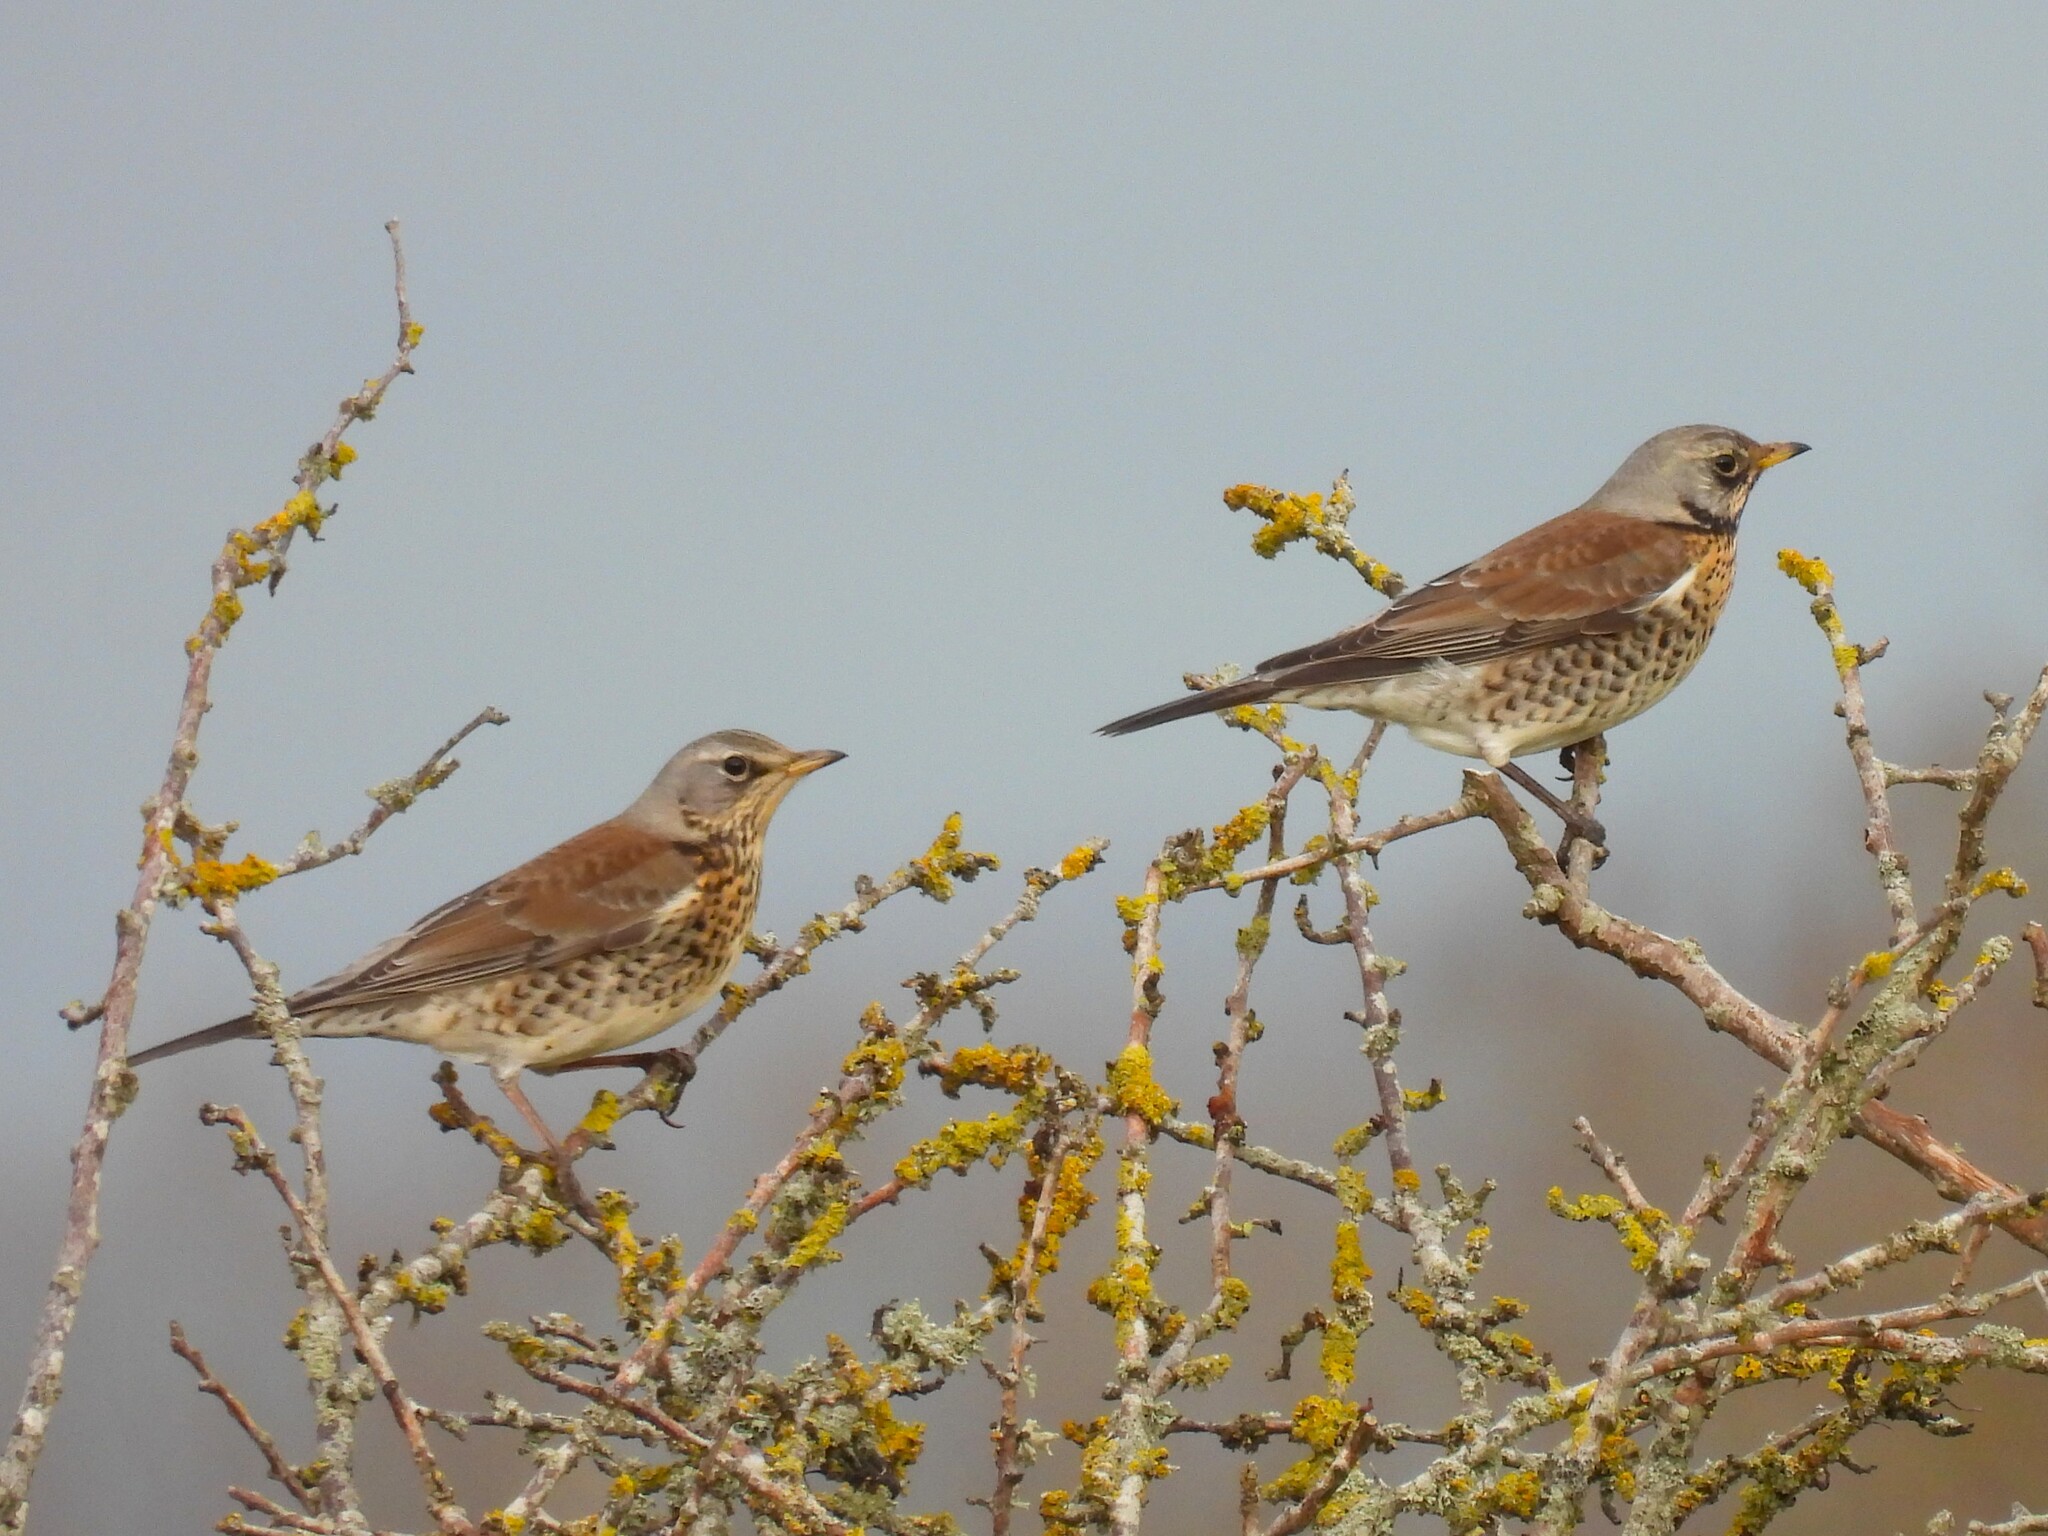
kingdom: Animalia
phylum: Chordata
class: Aves
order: Passeriformes
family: Turdidae
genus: Turdus
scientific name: Turdus pilaris
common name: Fieldfare
